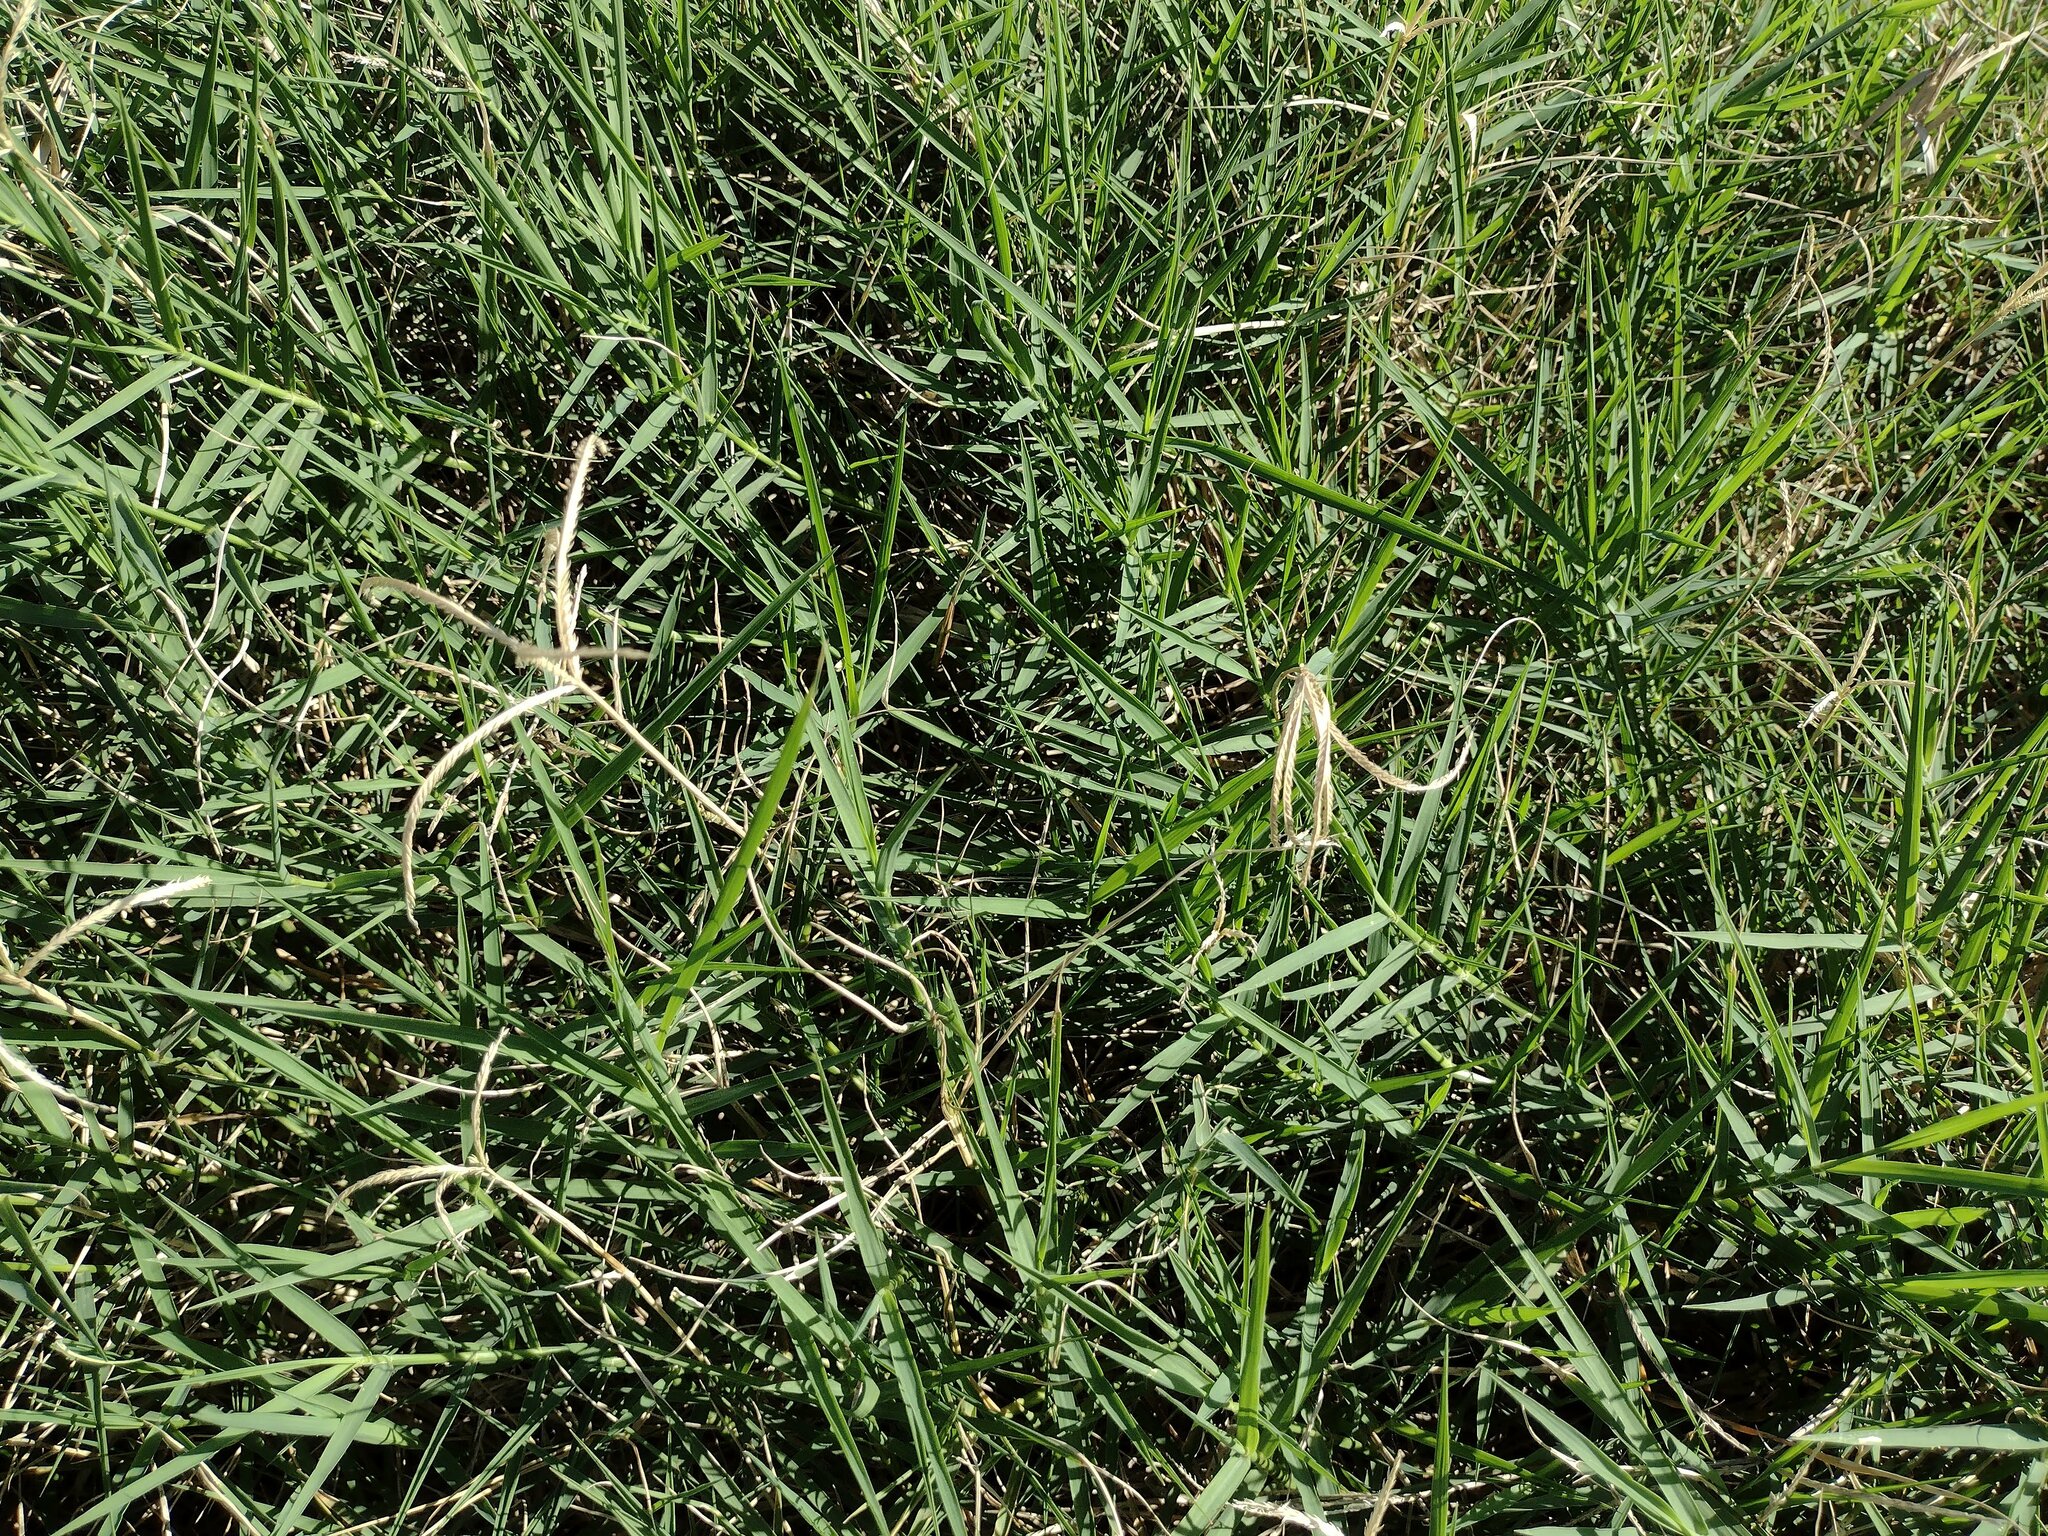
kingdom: Plantae
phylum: Tracheophyta
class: Liliopsida
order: Poales
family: Poaceae
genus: Cynodon
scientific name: Cynodon dactylon
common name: Bermuda grass
